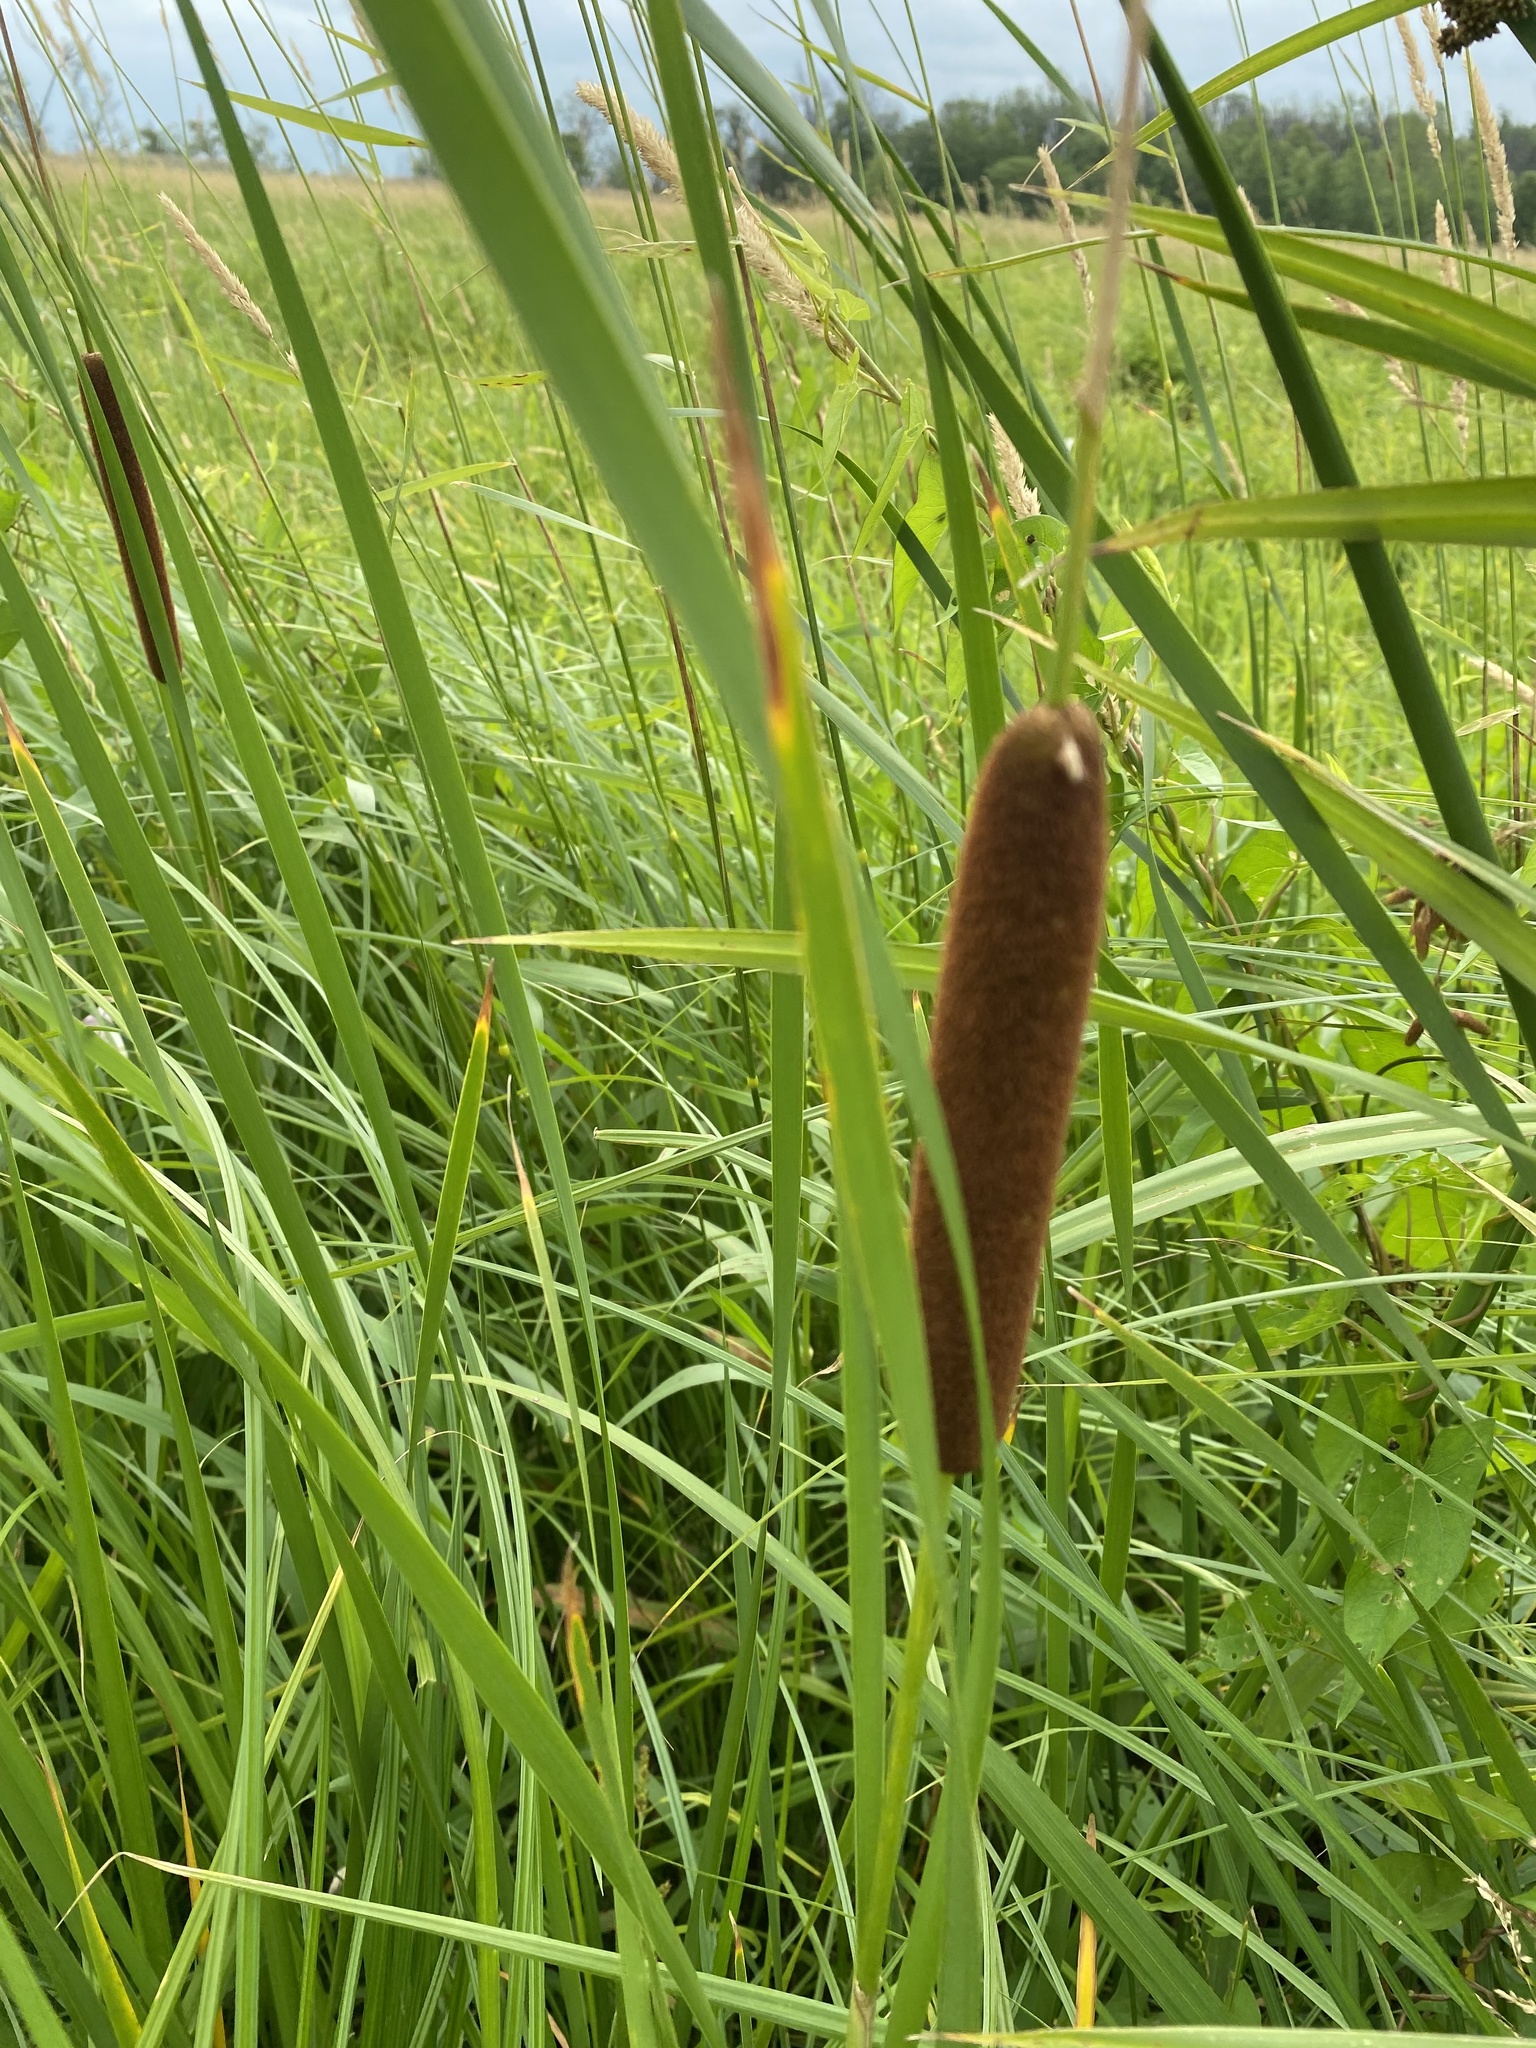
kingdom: Plantae
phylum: Tracheophyta
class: Liliopsida
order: Poales
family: Typhaceae
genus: Typha
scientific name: Typha angustifolia
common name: Lesser bulrush
